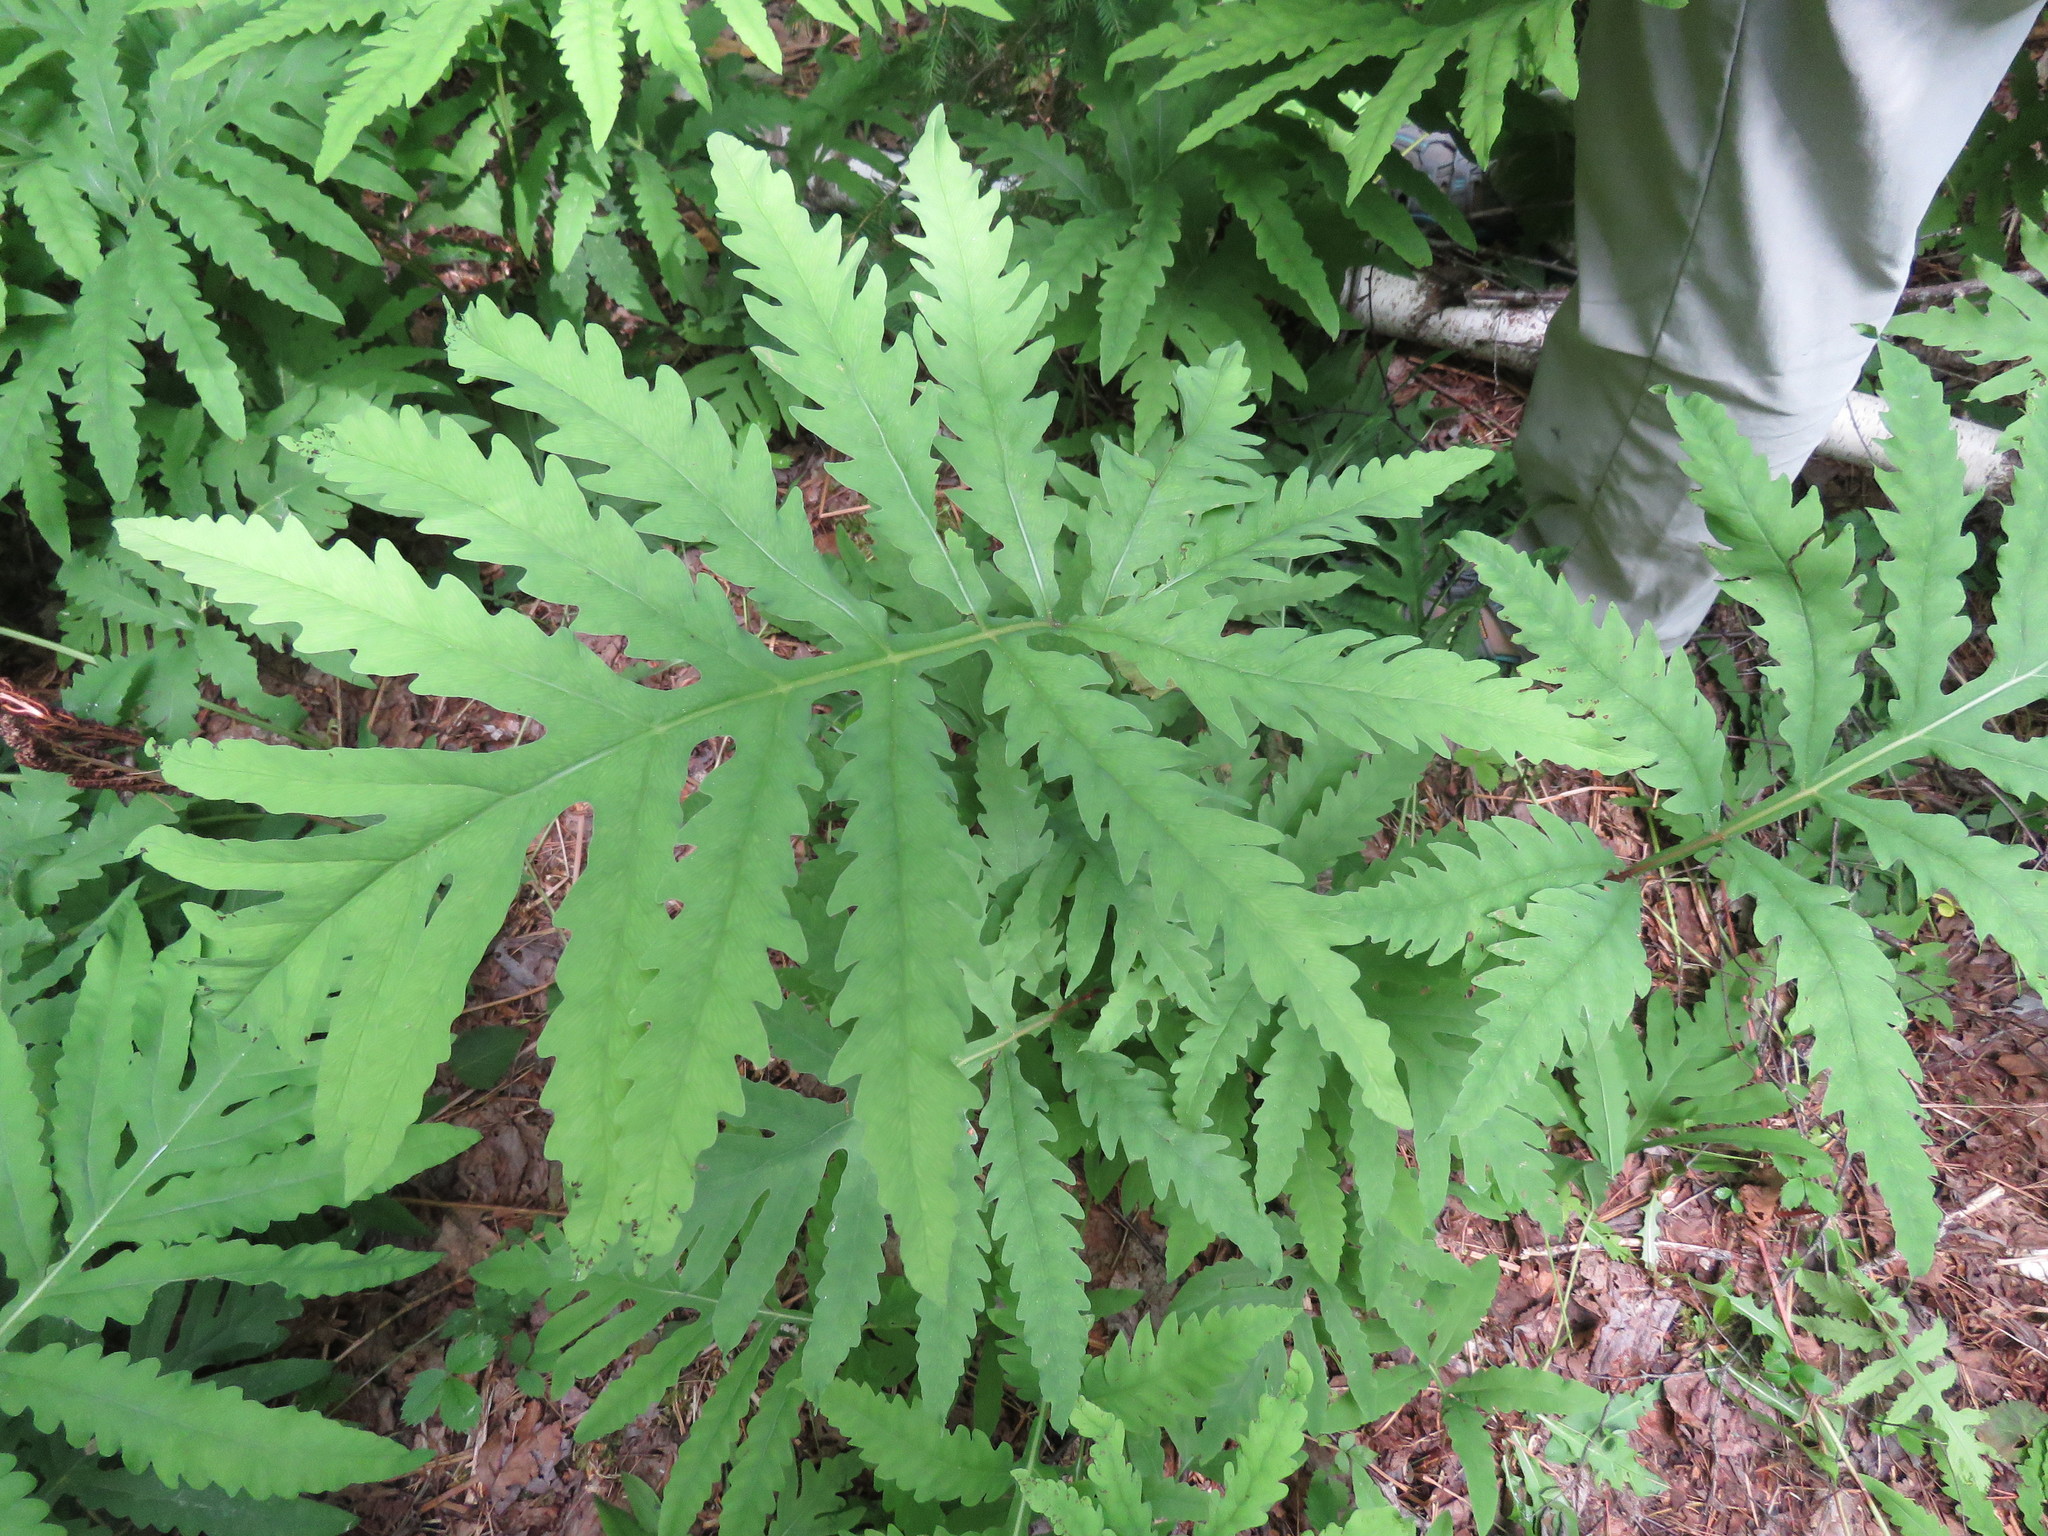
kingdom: Plantae
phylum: Tracheophyta
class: Polypodiopsida
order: Polypodiales
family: Onocleaceae
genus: Onoclea
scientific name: Onoclea sensibilis
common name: Sensitive fern
